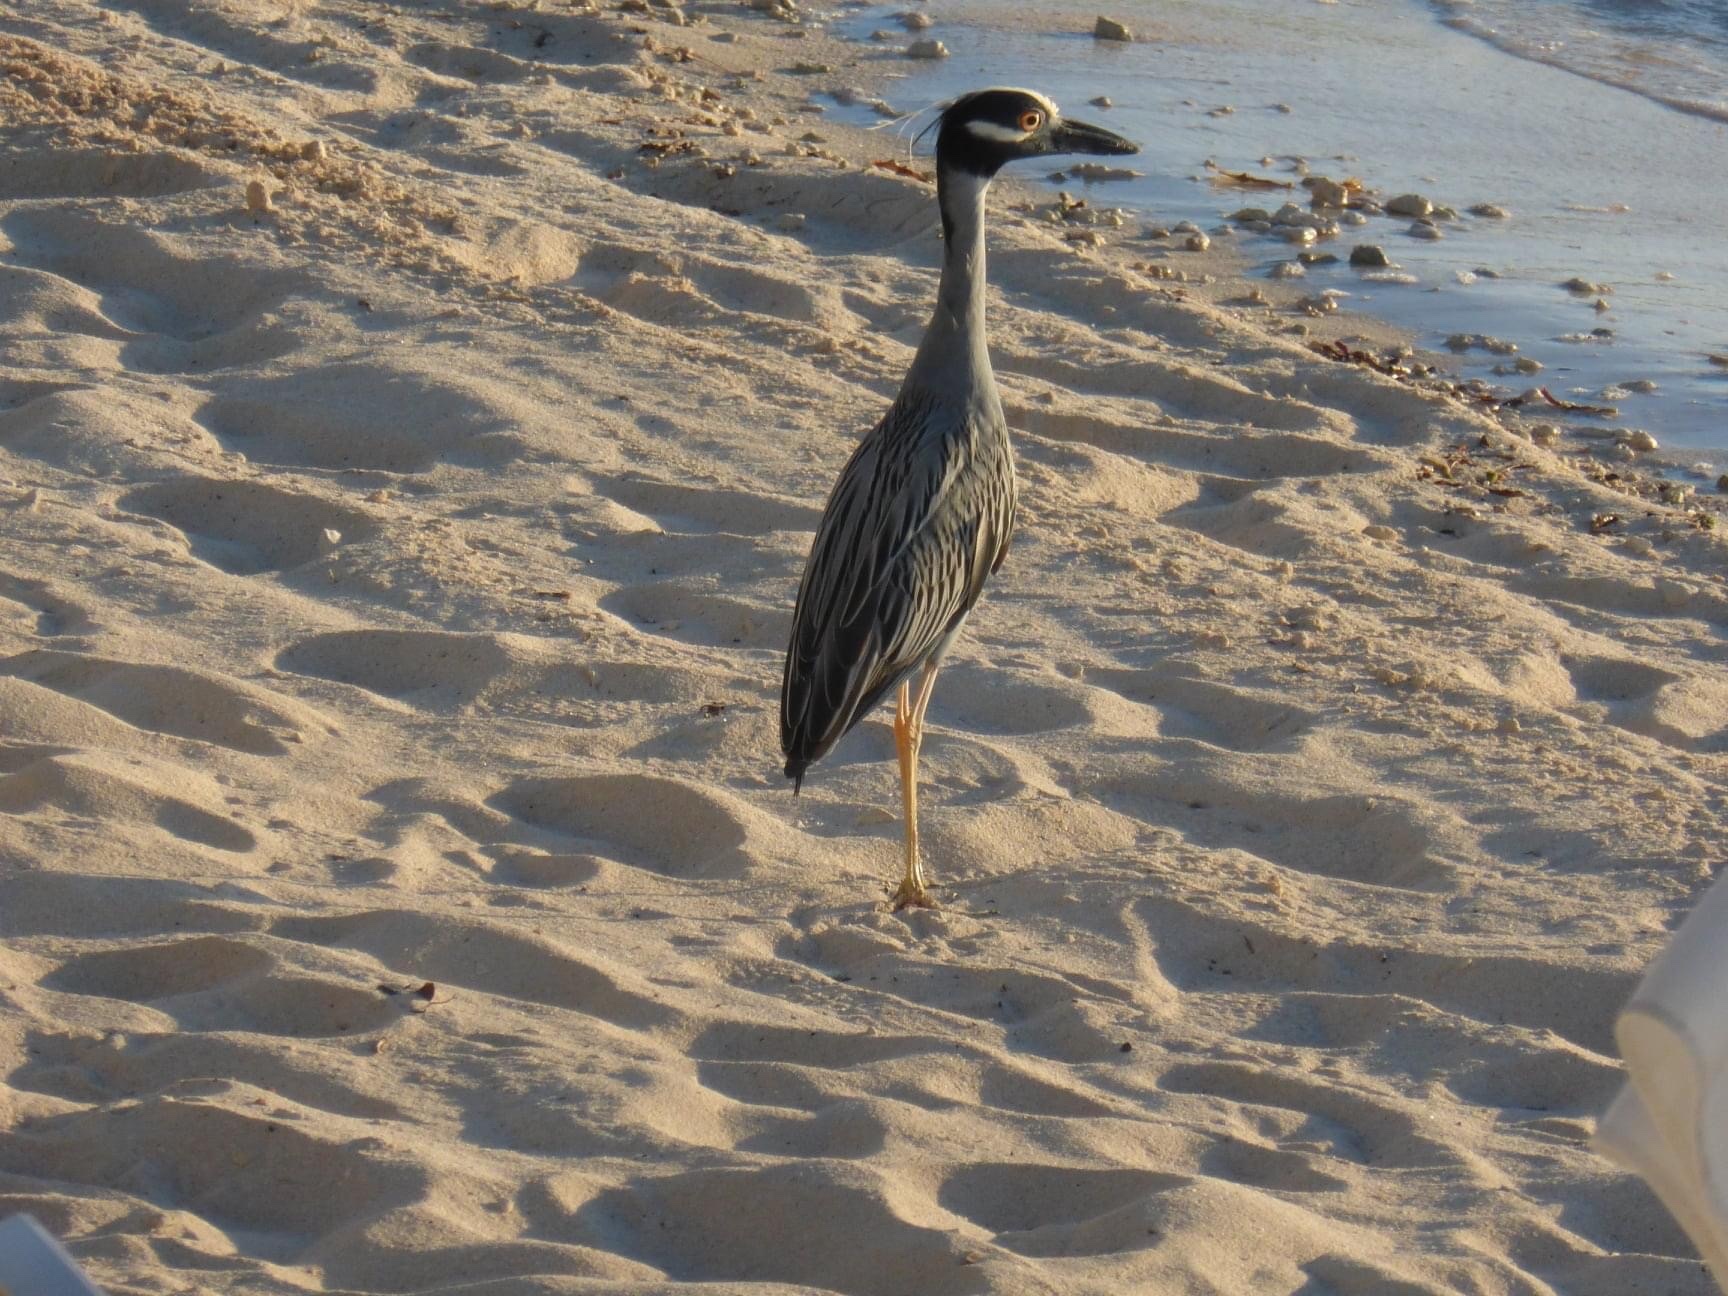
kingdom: Animalia
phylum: Chordata
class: Aves
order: Pelecaniformes
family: Ardeidae
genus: Nyctanassa
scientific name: Nyctanassa violacea
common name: Yellow-crowned night heron
